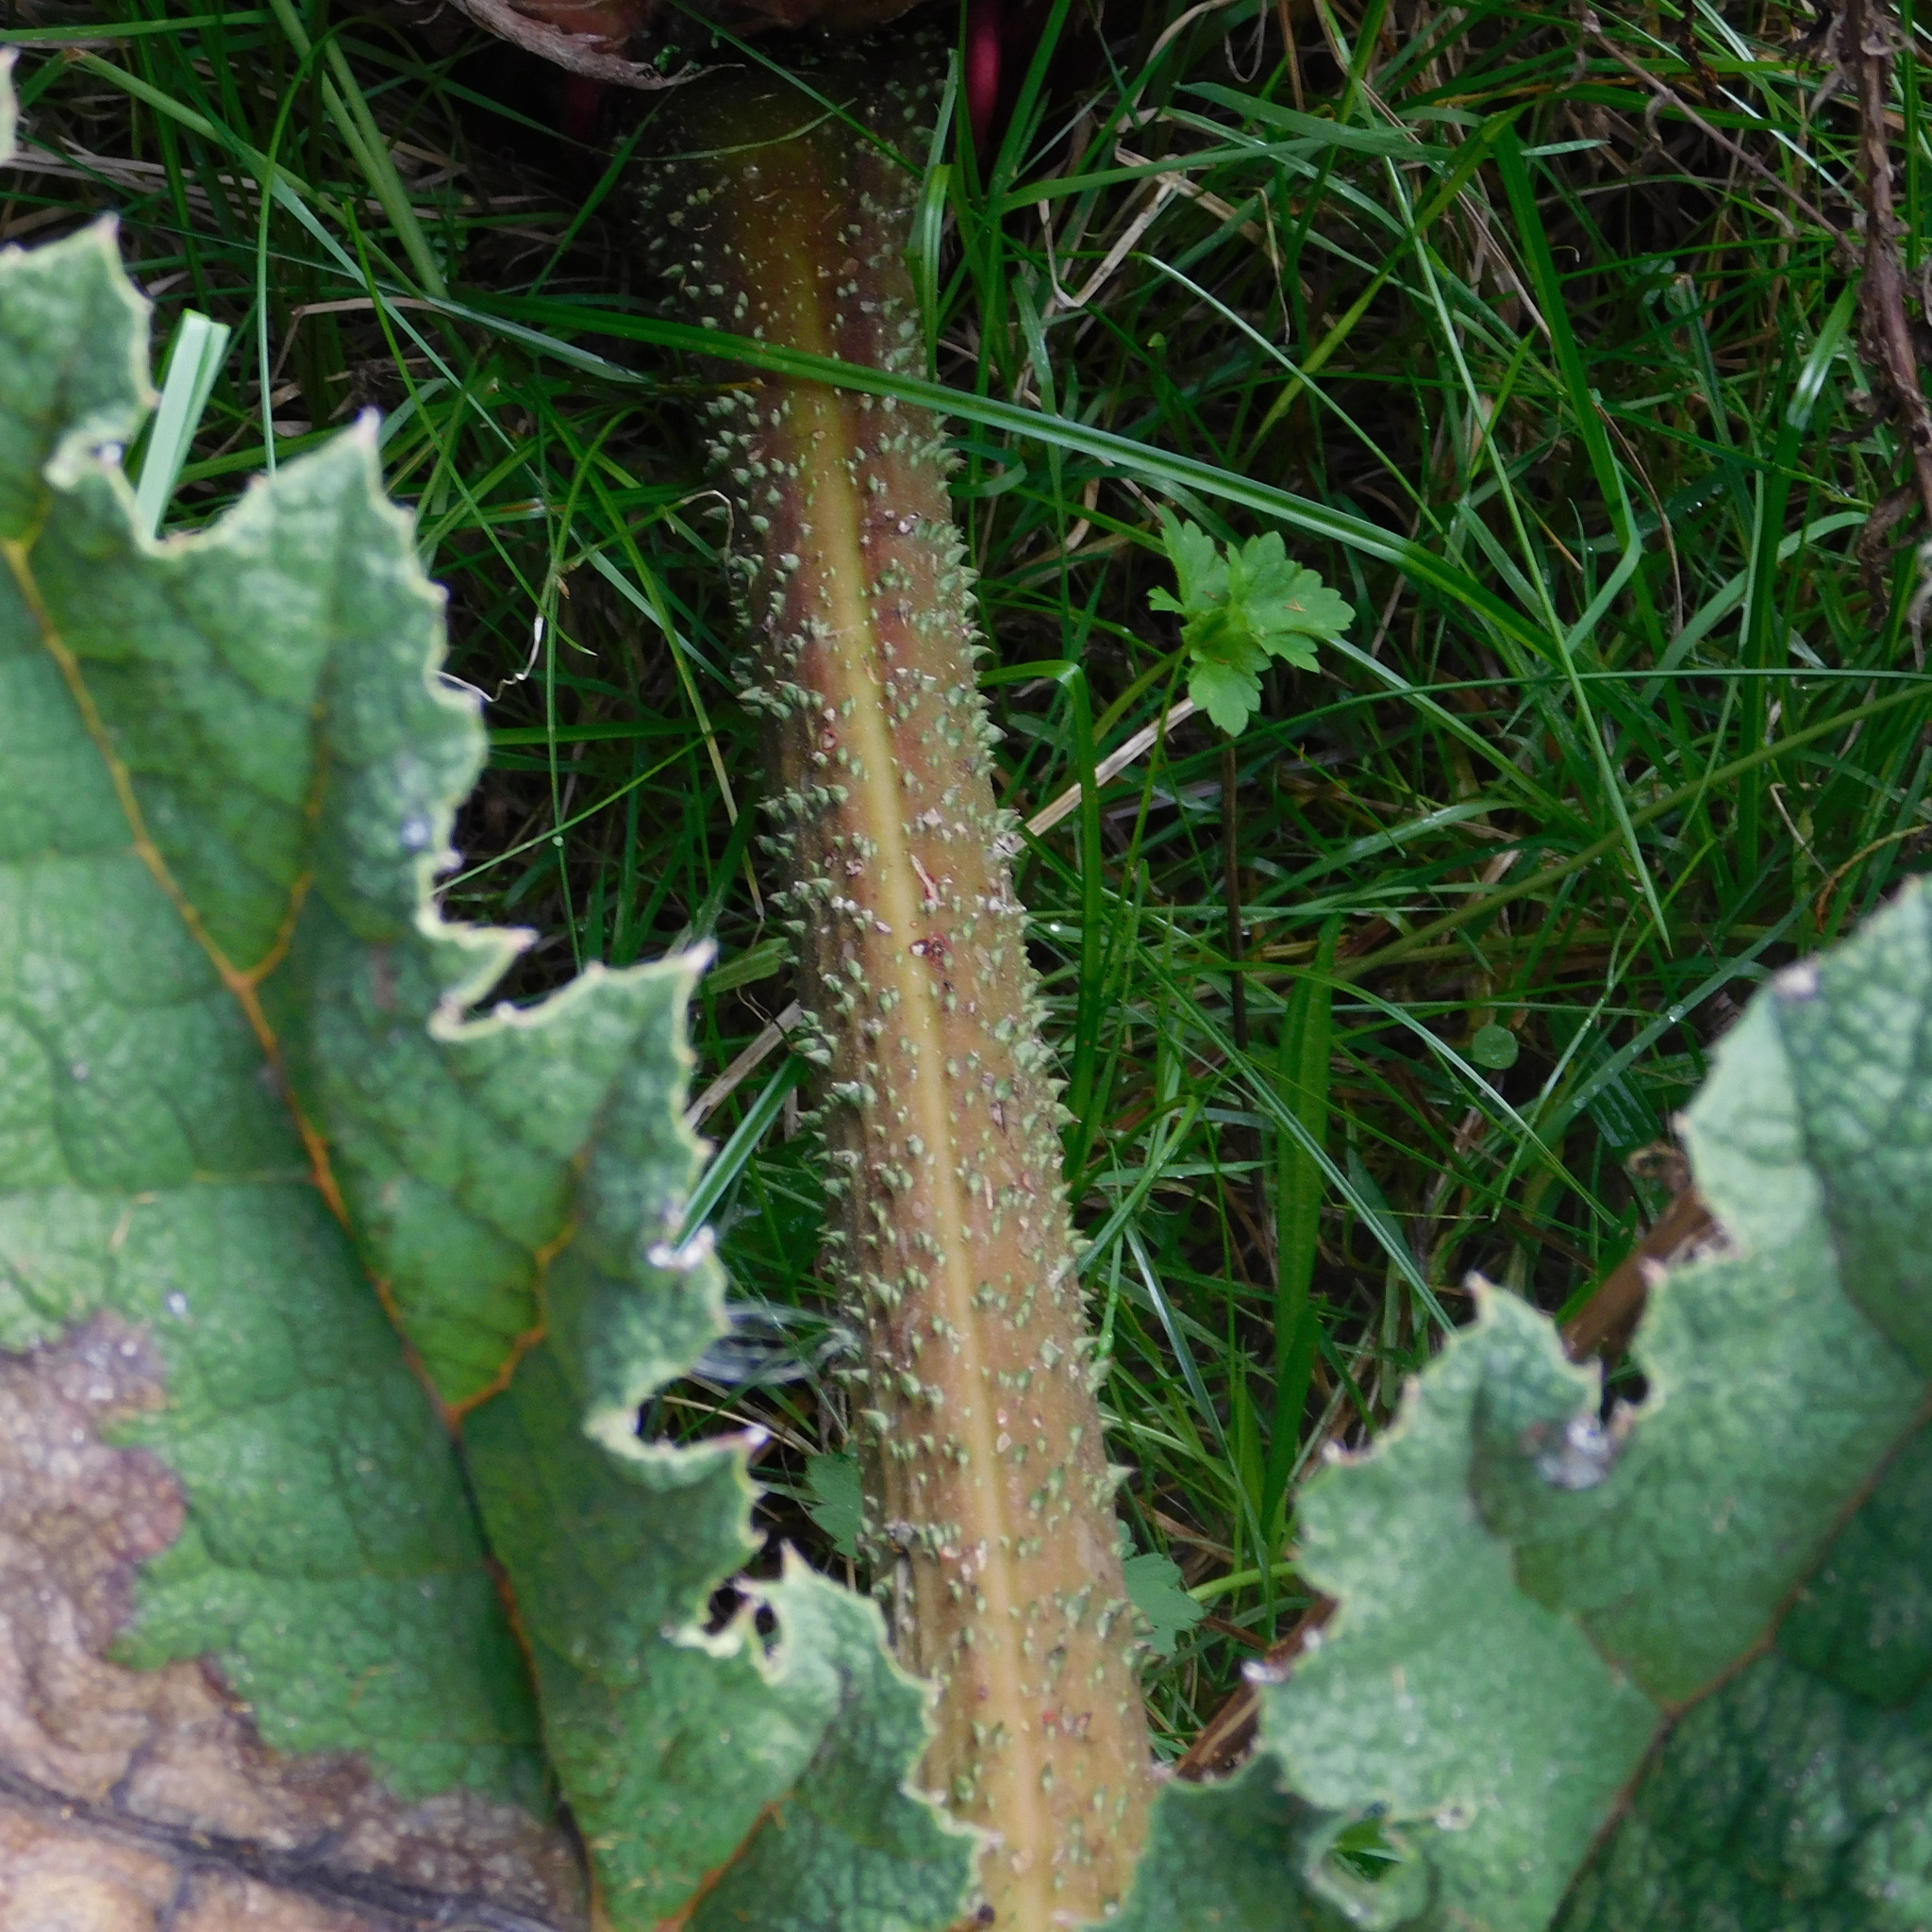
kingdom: Plantae
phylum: Tracheophyta
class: Magnoliopsida
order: Gunnerales
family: Gunneraceae
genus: Gunnera
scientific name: Gunnera tinctoria
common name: Giant-rhubarb
